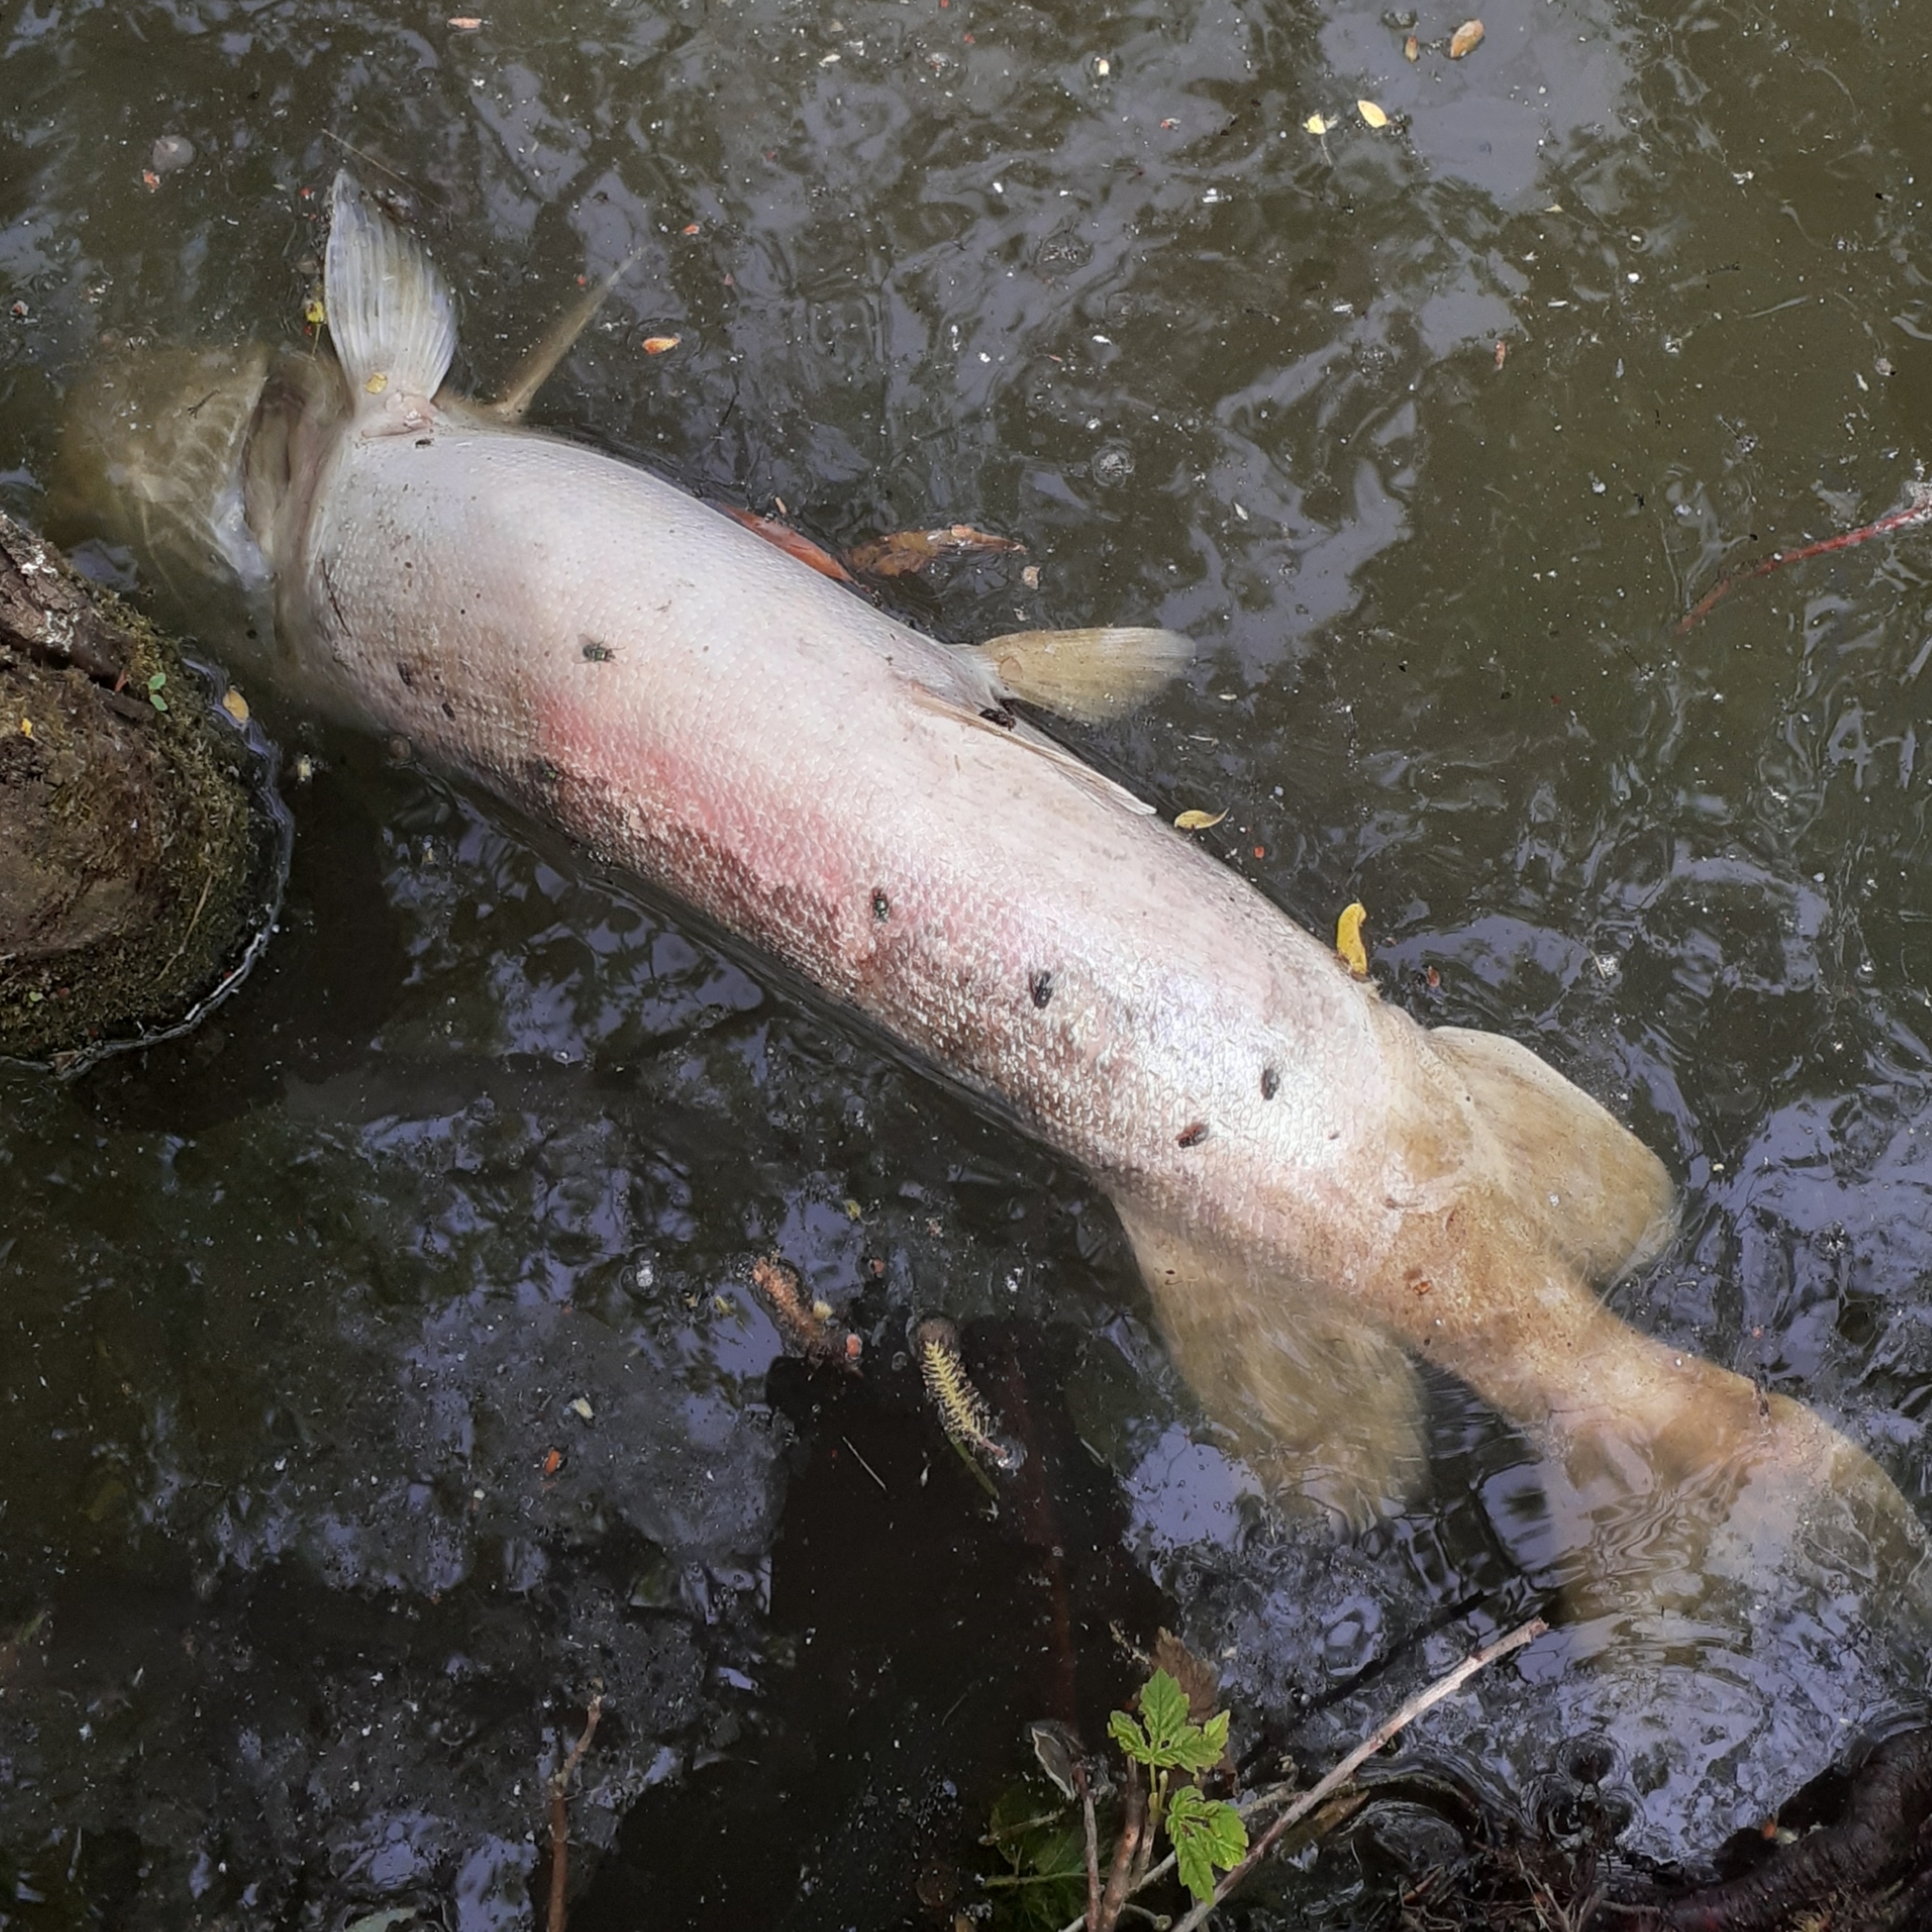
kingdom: Animalia
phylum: Chordata
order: Esociformes
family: Esocidae
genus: Esox
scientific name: Esox lucius
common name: Northern pike
